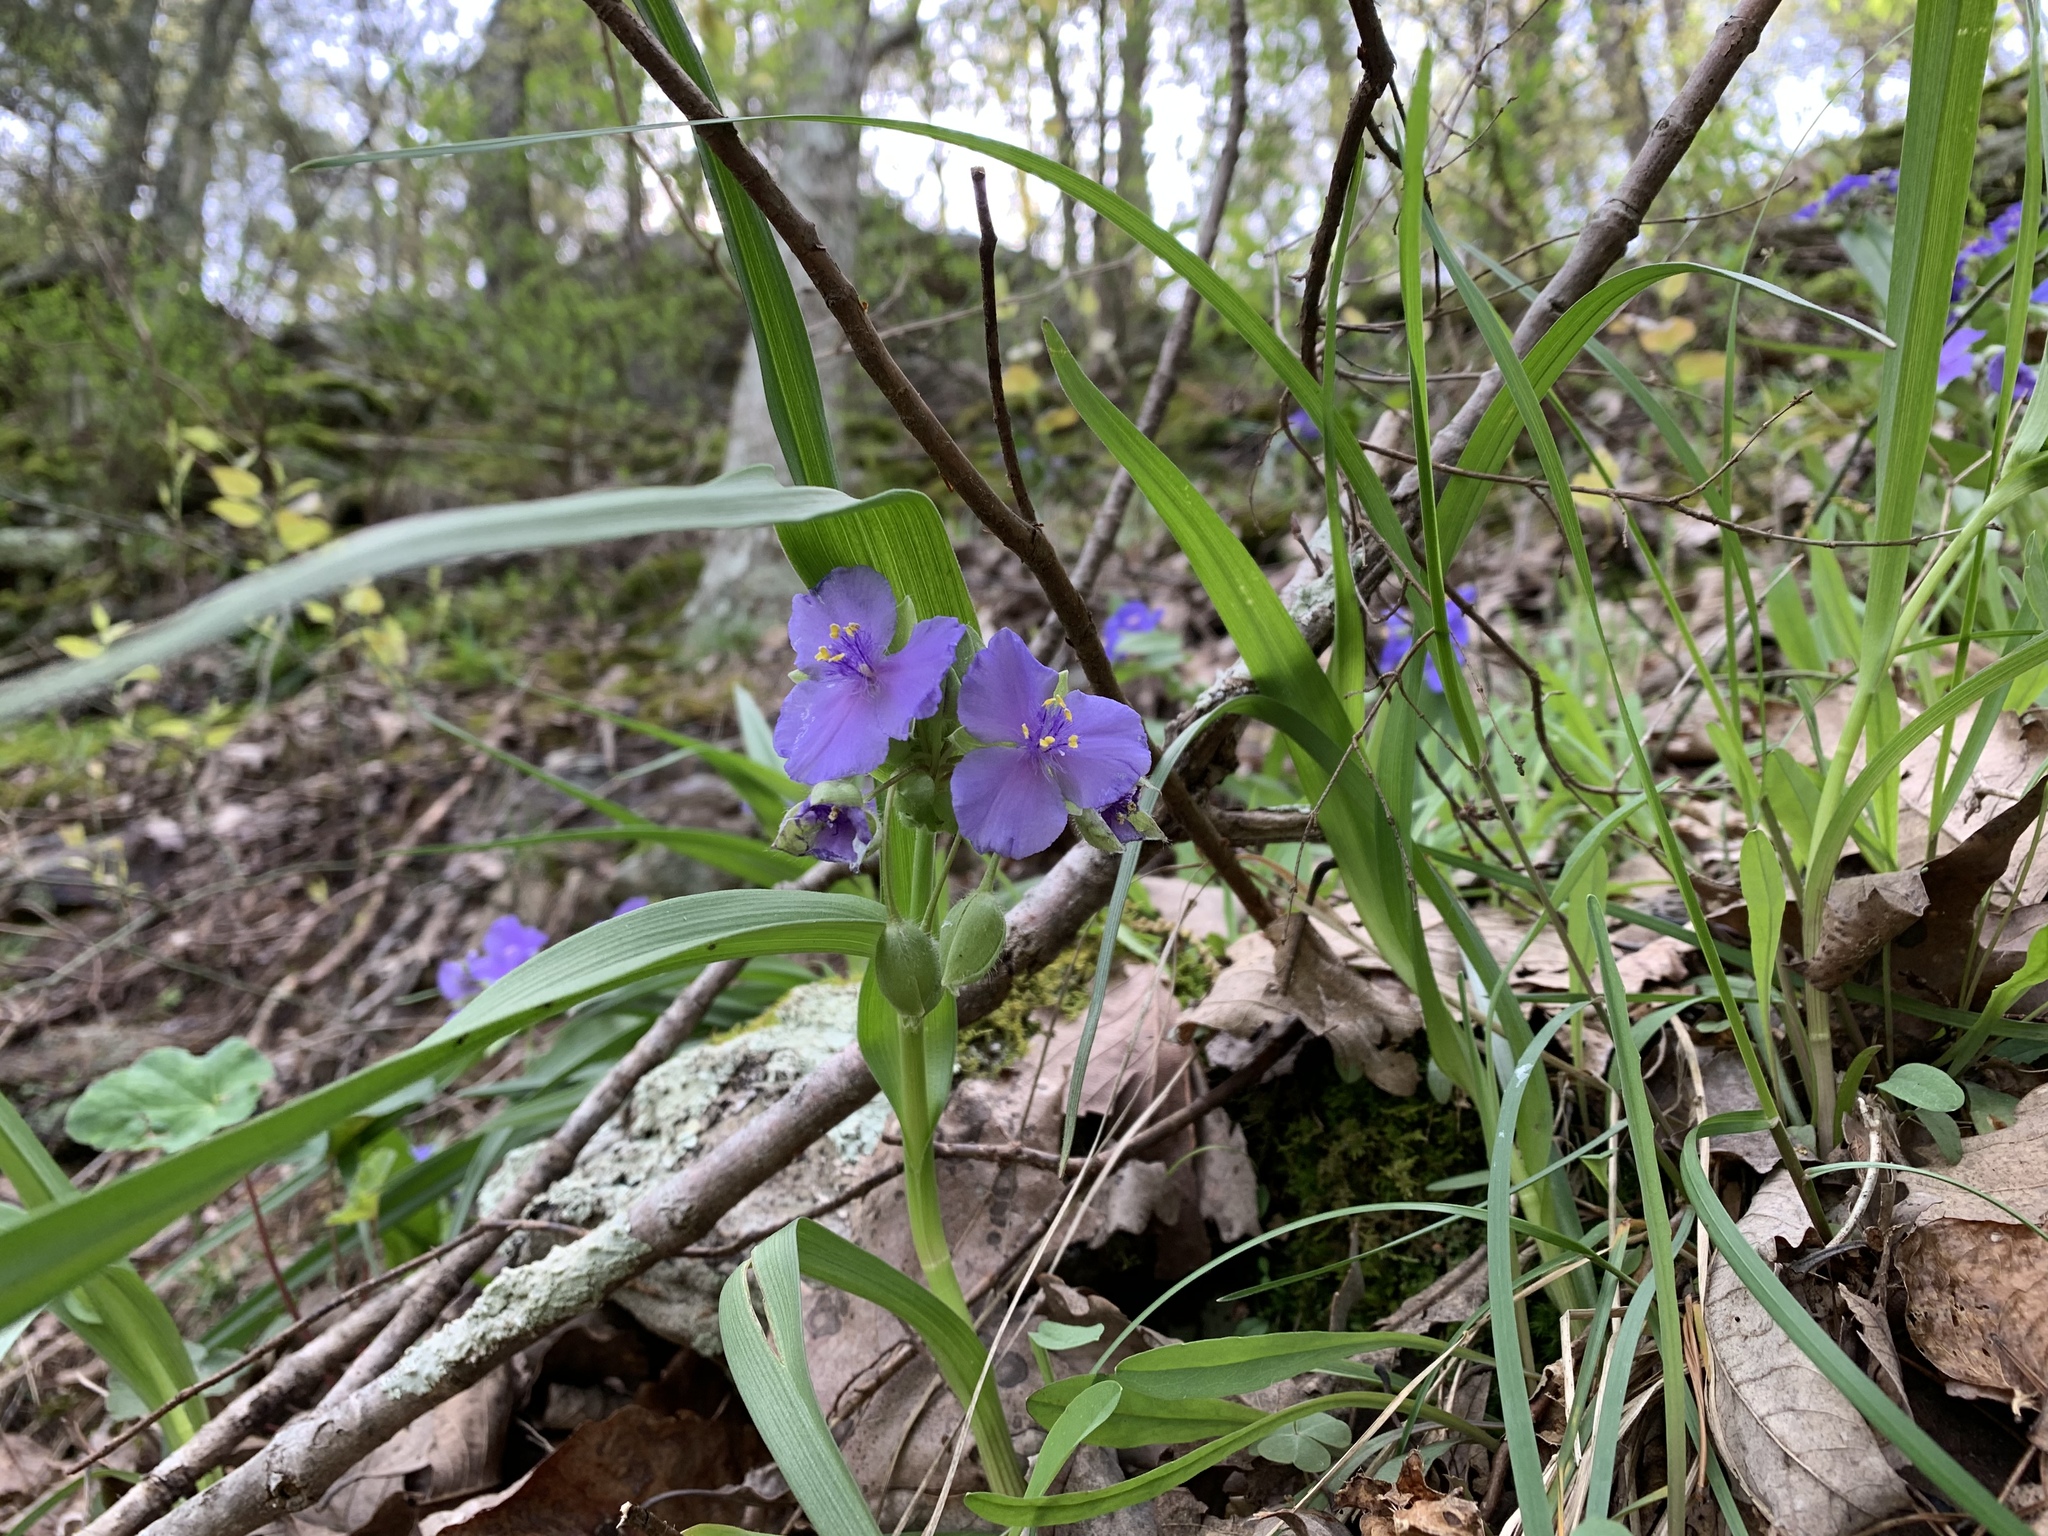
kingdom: Plantae
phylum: Tracheophyta
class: Liliopsida
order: Commelinales
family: Commelinaceae
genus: Tradescantia
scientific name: Tradescantia virginiana
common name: Spiderwort
